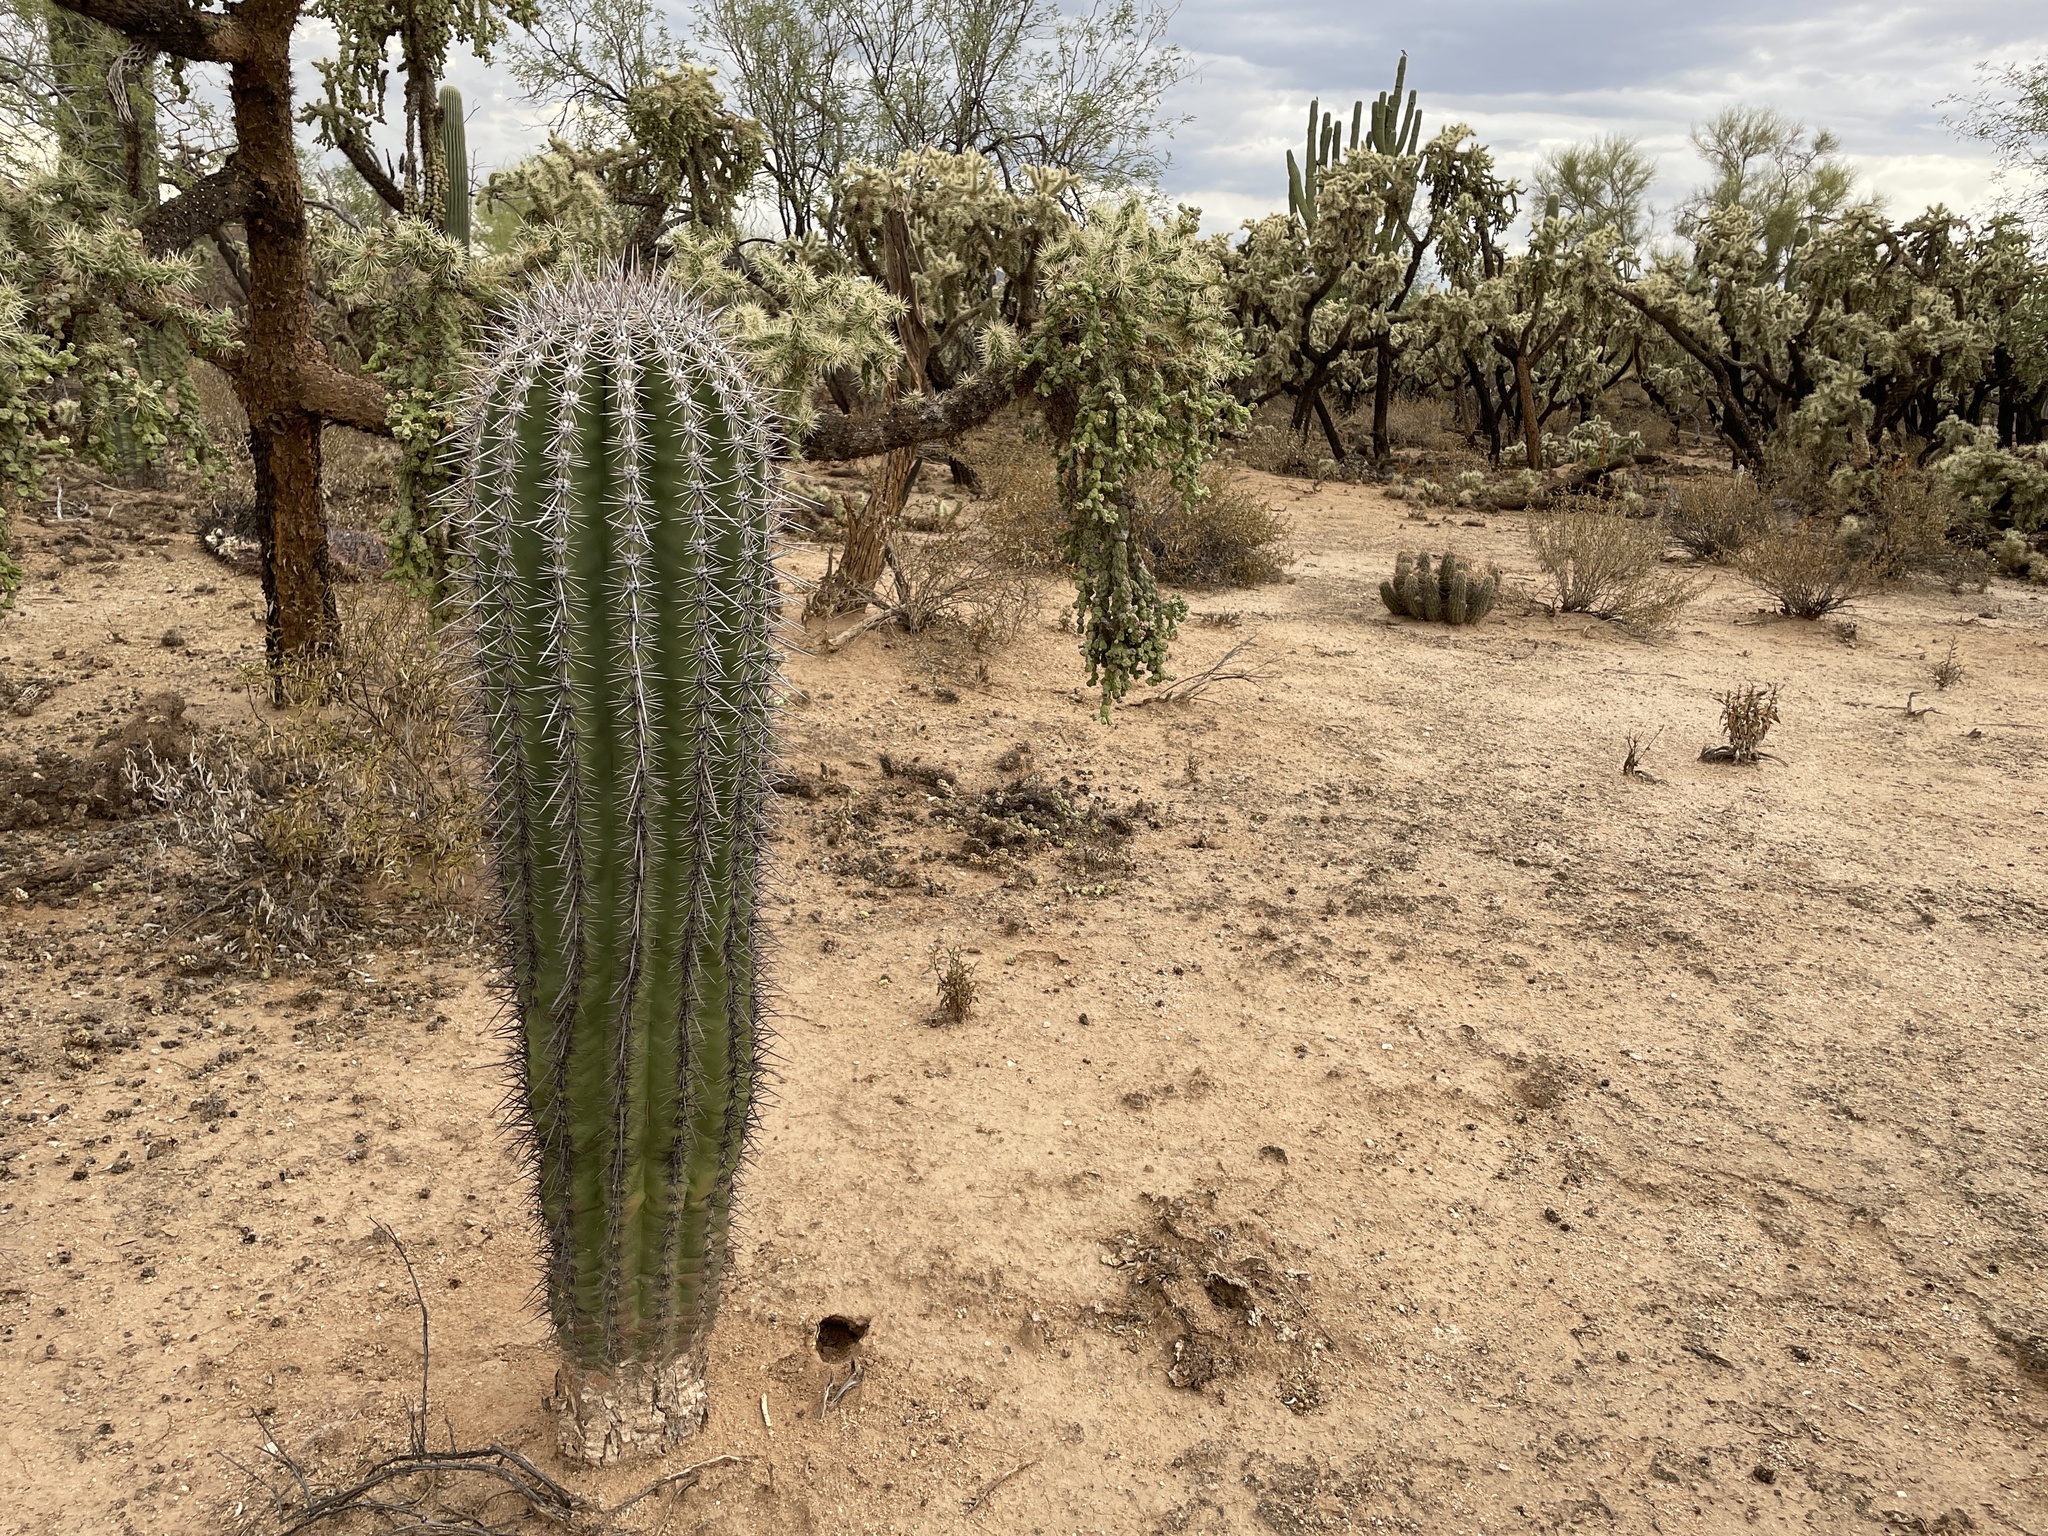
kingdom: Plantae
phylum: Tracheophyta
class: Magnoliopsida
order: Caryophyllales
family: Cactaceae
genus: Carnegiea
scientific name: Carnegiea gigantea
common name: Saguaro
